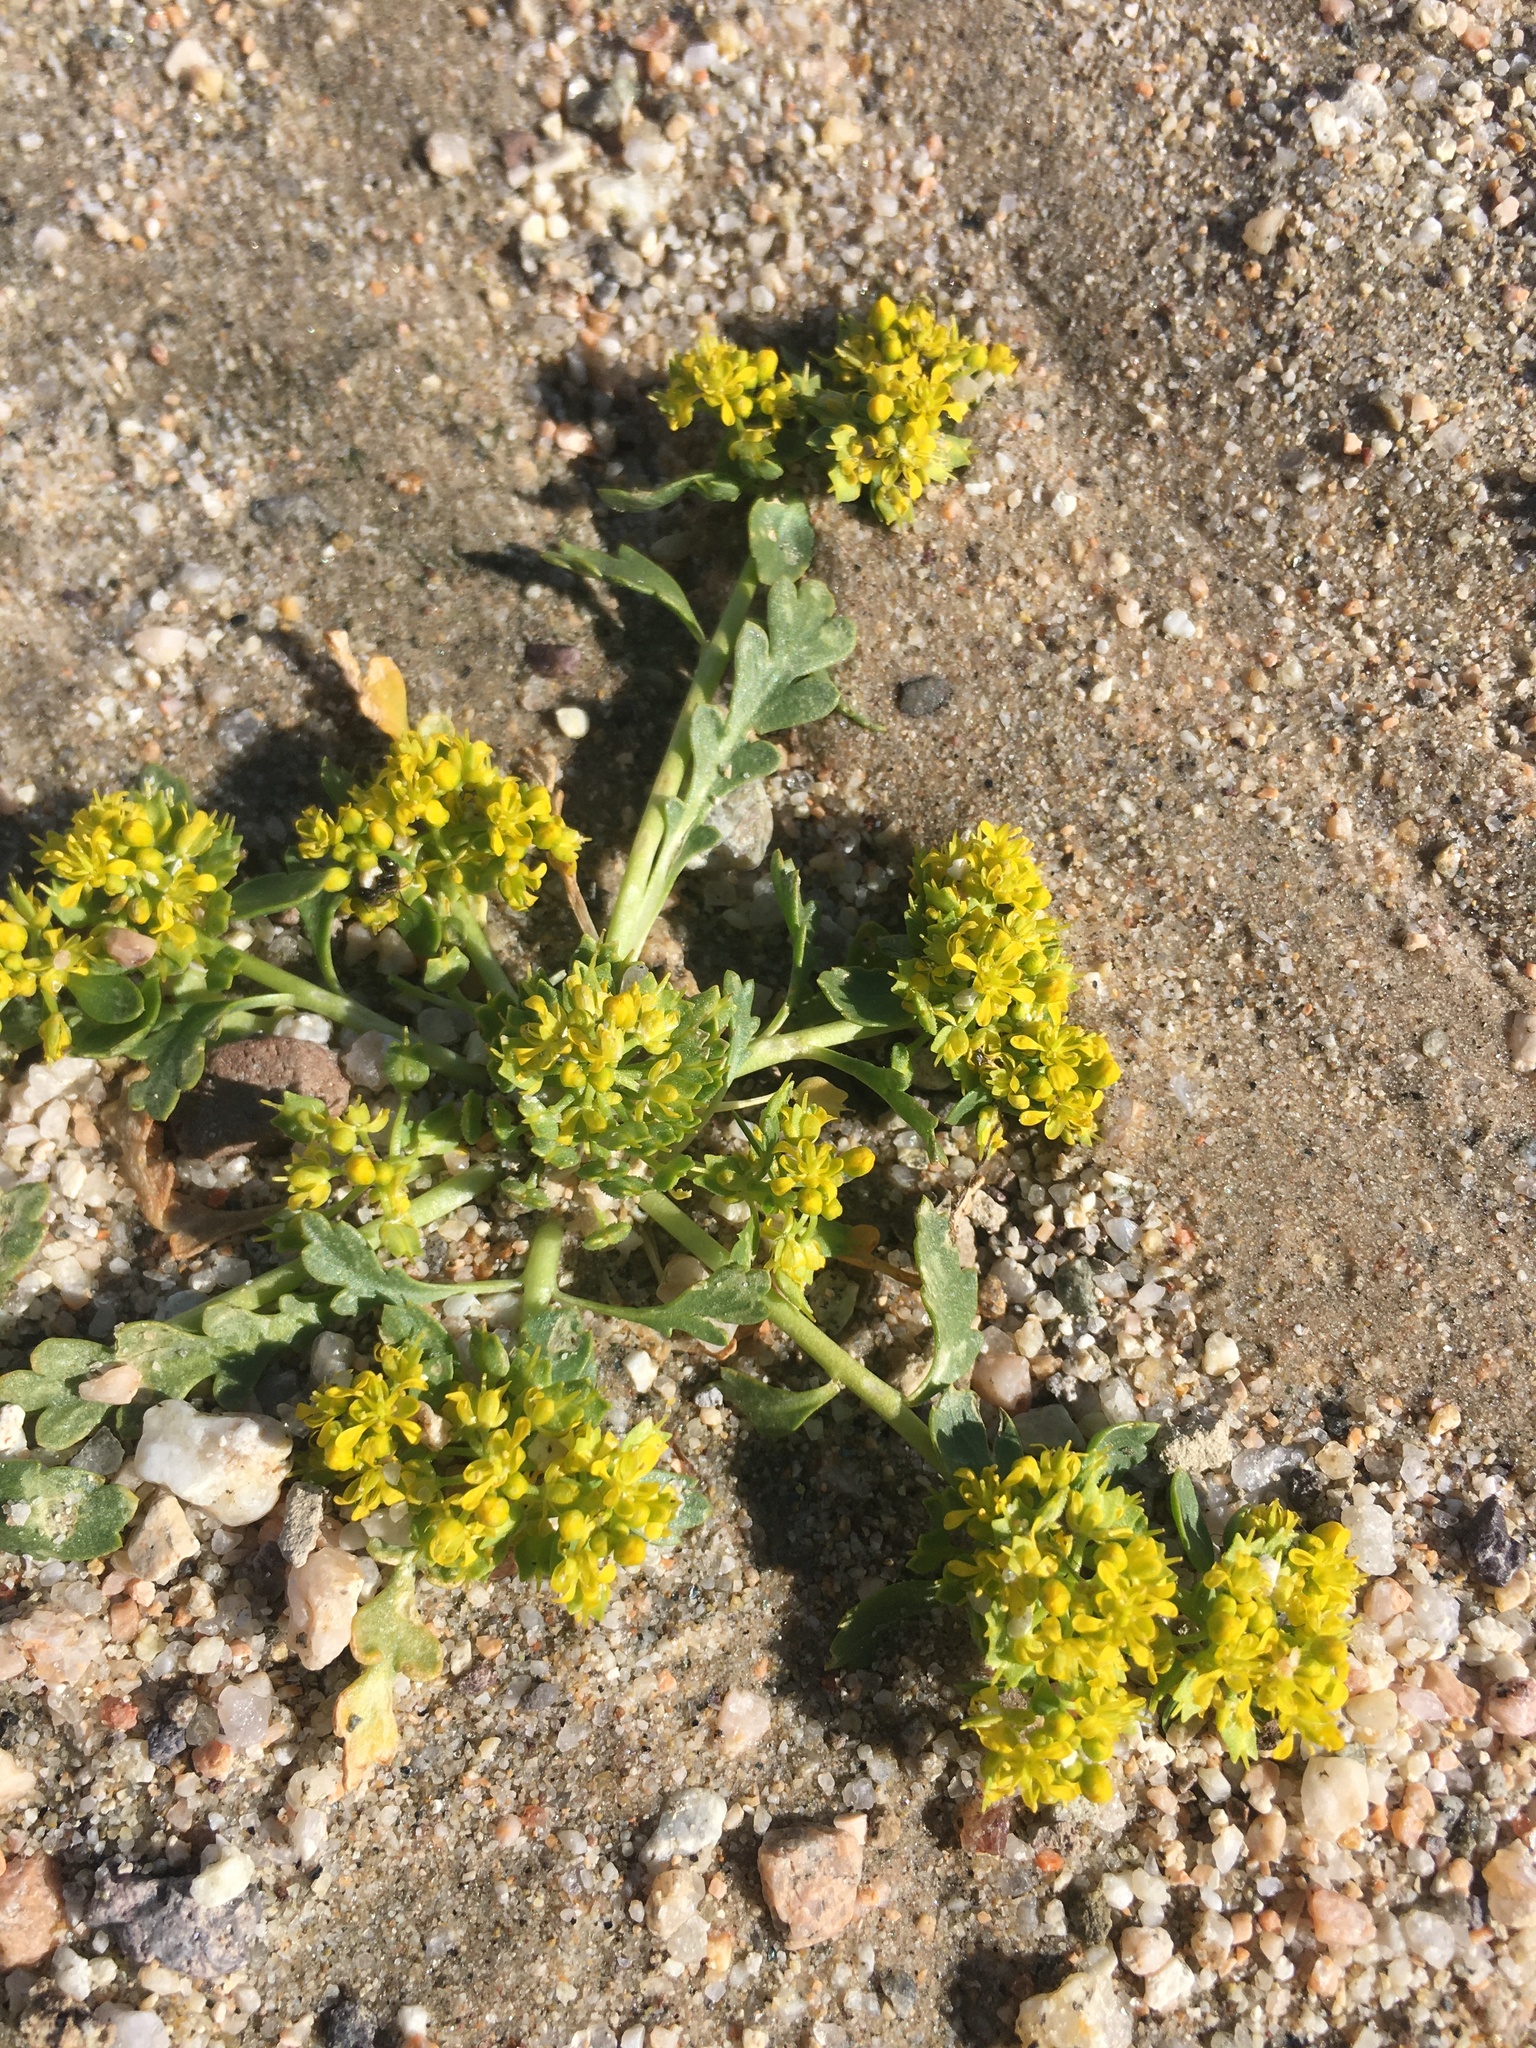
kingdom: Plantae
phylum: Tracheophyta
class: Magnoliopsida
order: Brassicales
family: Brassicaceae
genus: Lepidium
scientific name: Lepidium flavum
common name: Yellow pepperwort
